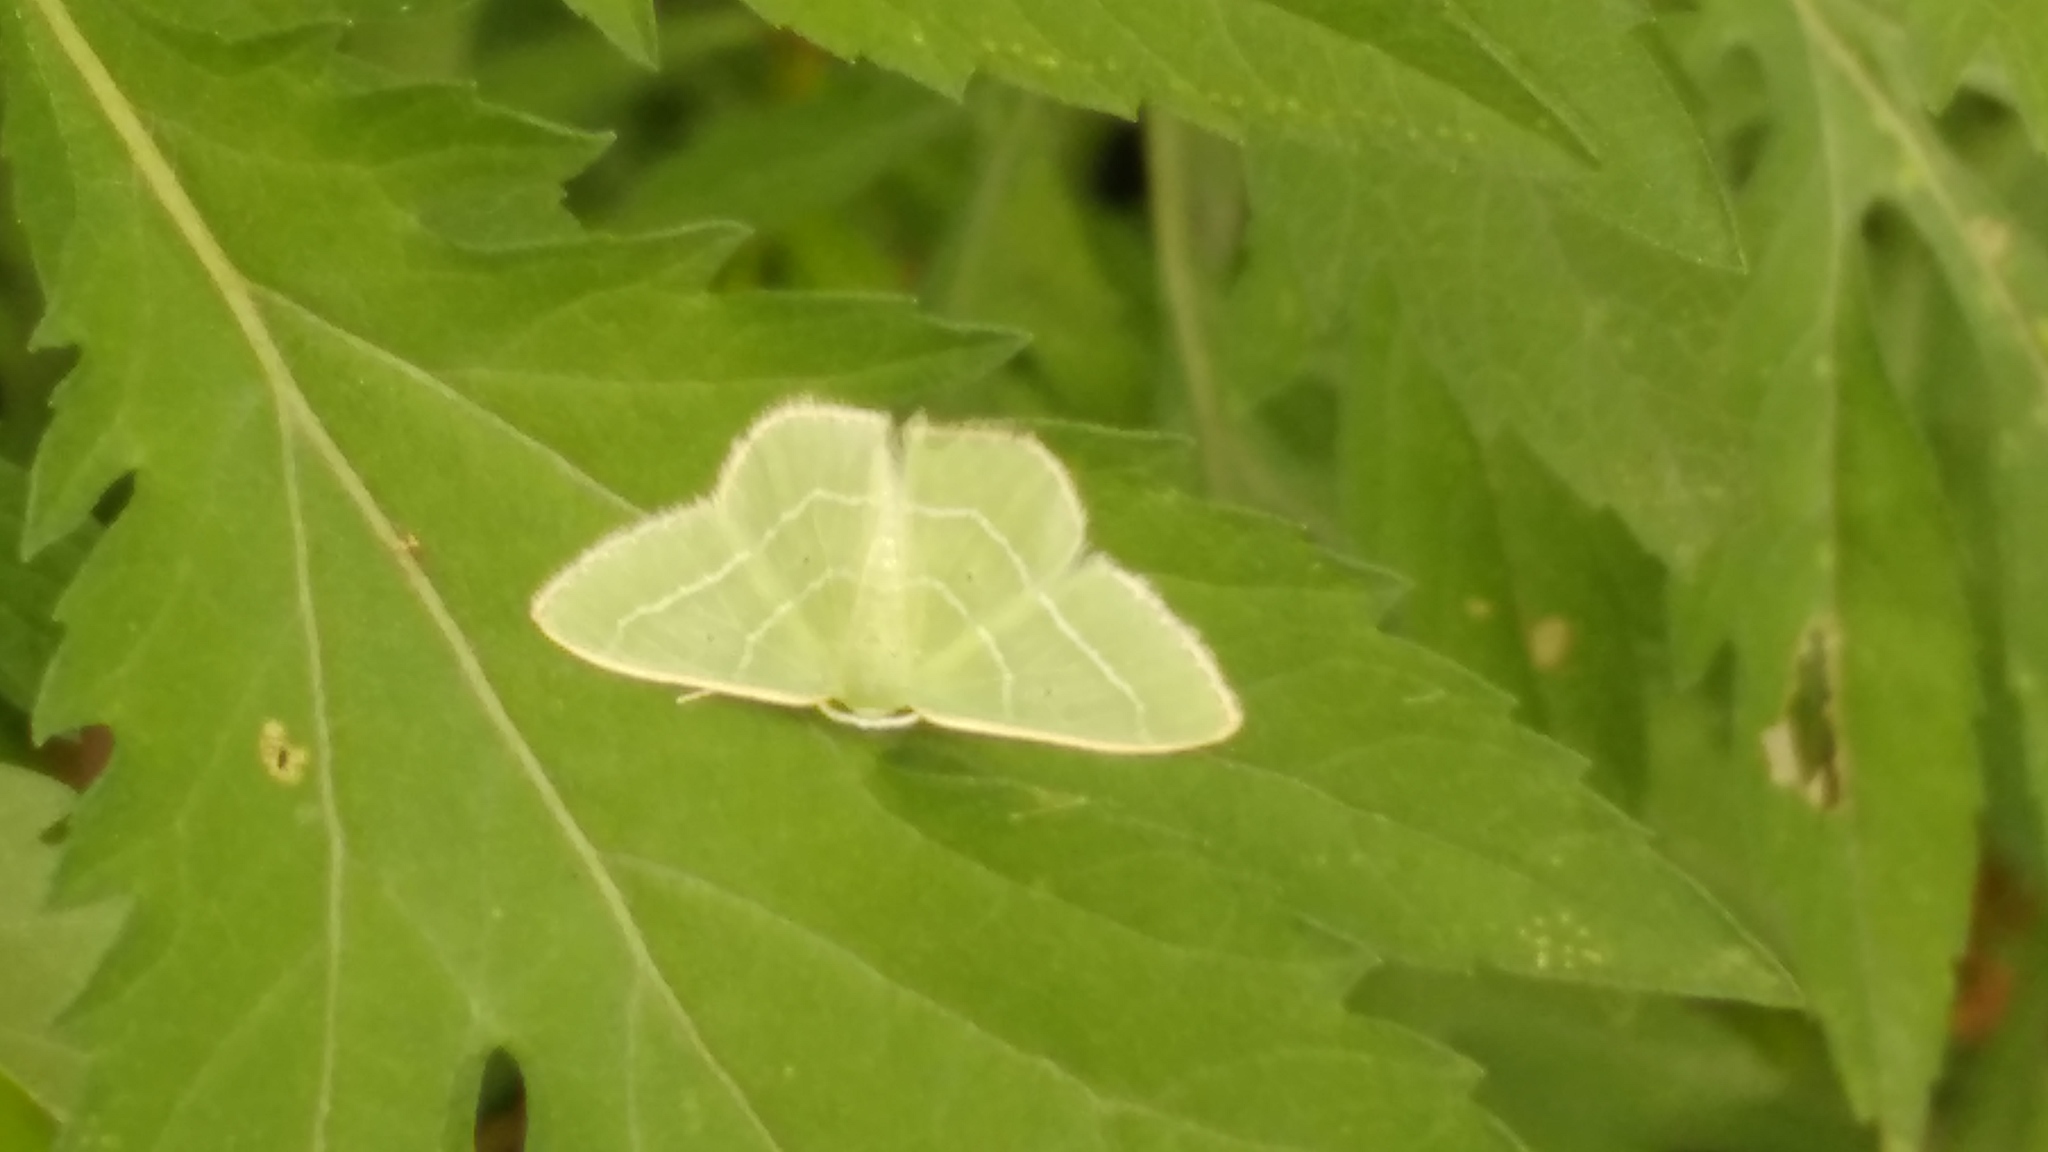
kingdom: Animalia
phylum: Arthropoda
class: Insecta
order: Lepidoptera
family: Geometridae
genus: Nemoria
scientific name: Nemoria bistriaria
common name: Red-fringed emerald
